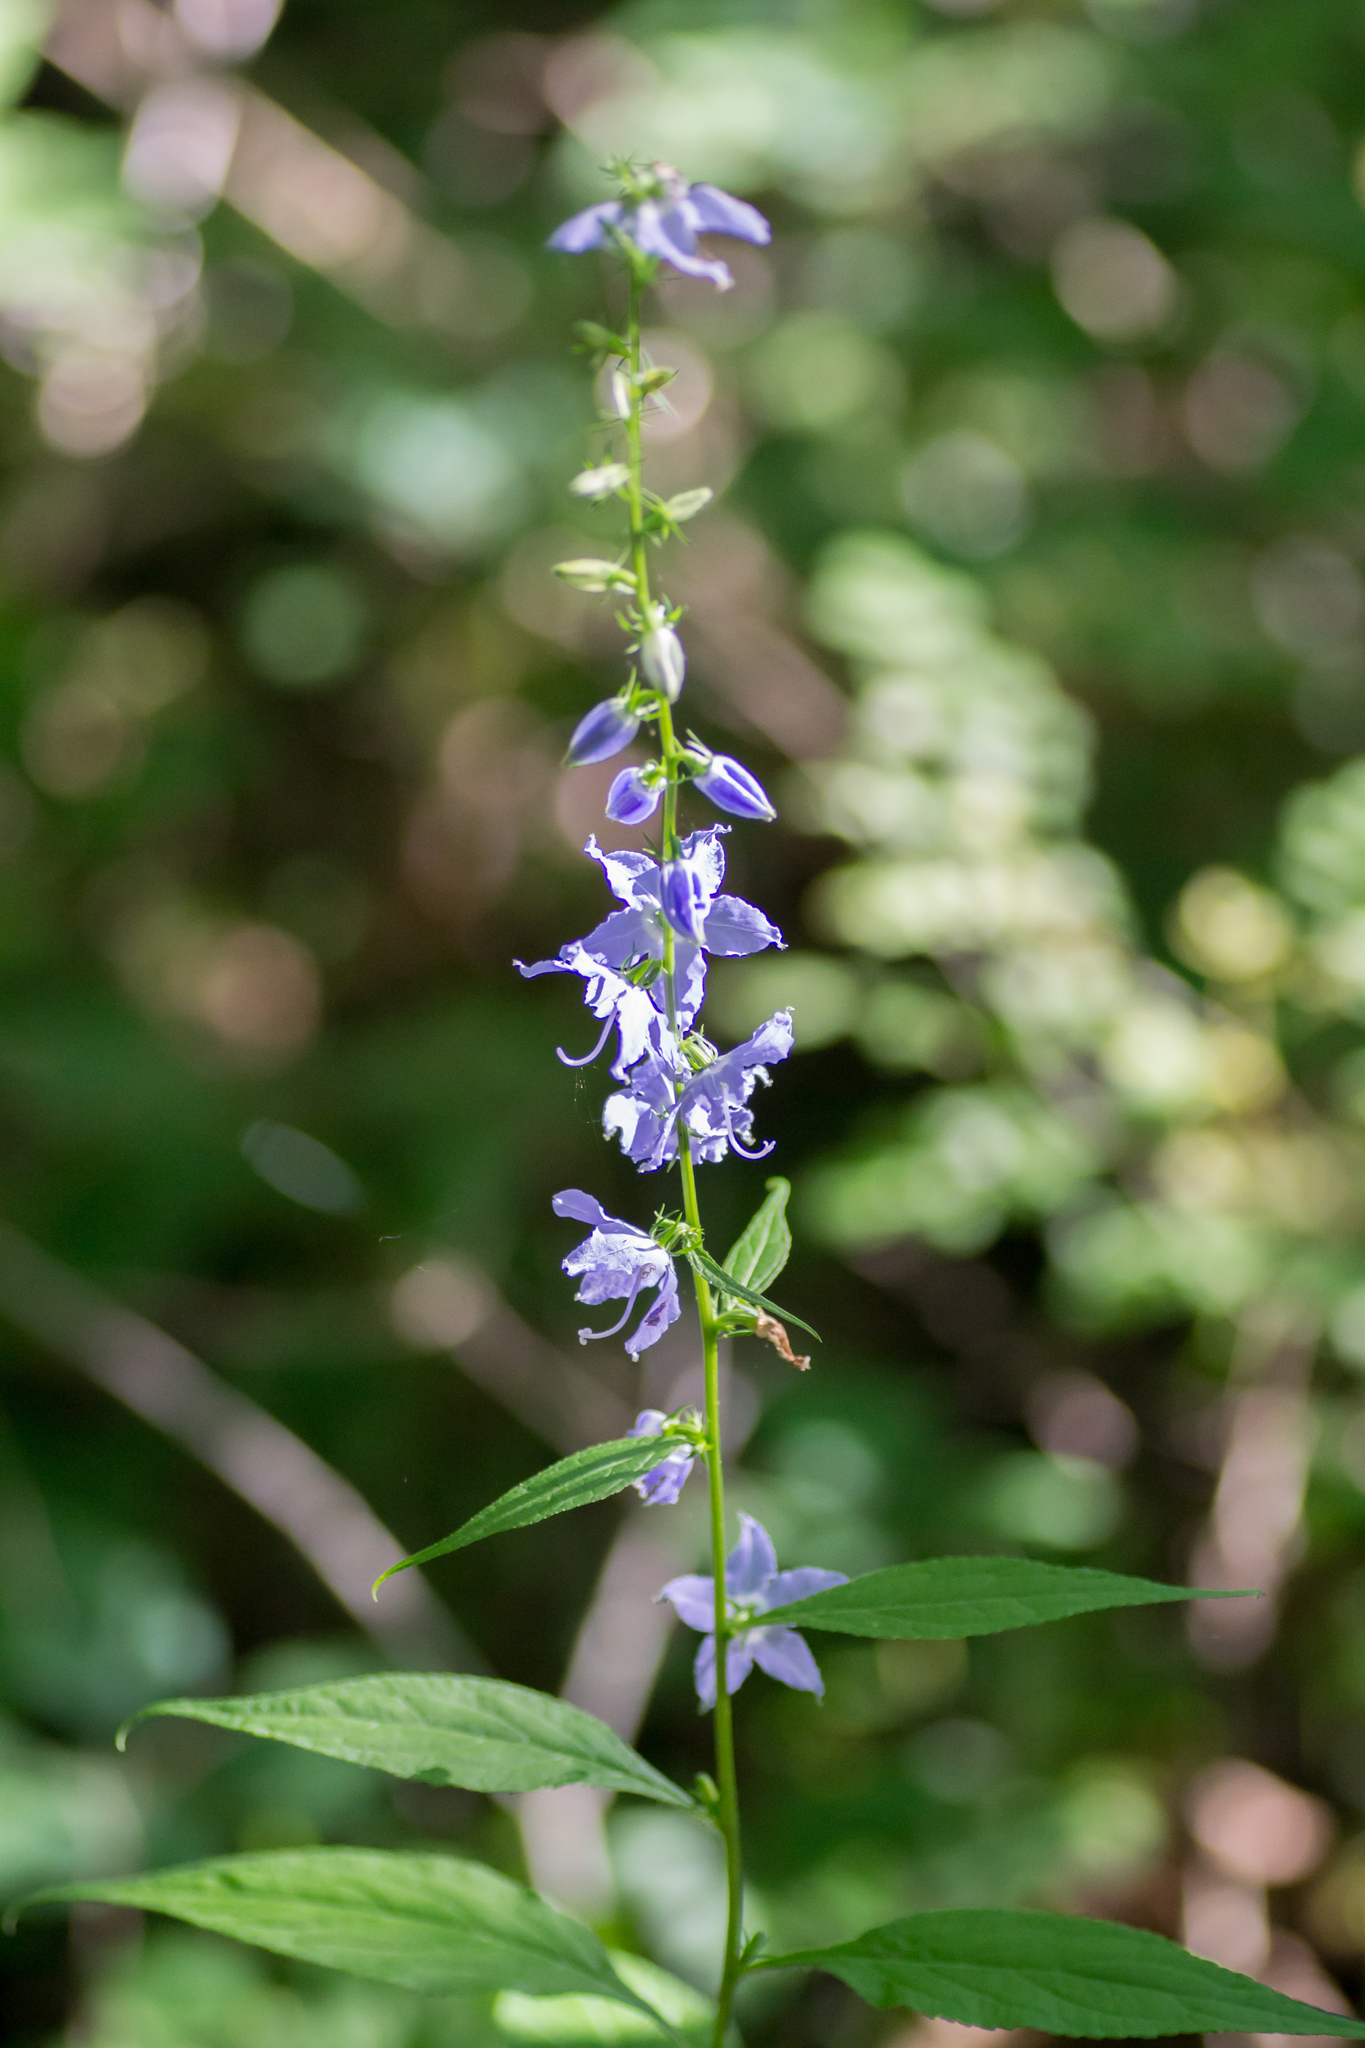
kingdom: Plantae
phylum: Tracheophyta
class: Magnoliopsida
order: Asterales
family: Campanulaceae
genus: Campanulastrum
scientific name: Campanulastrum americanum
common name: American bellflower
